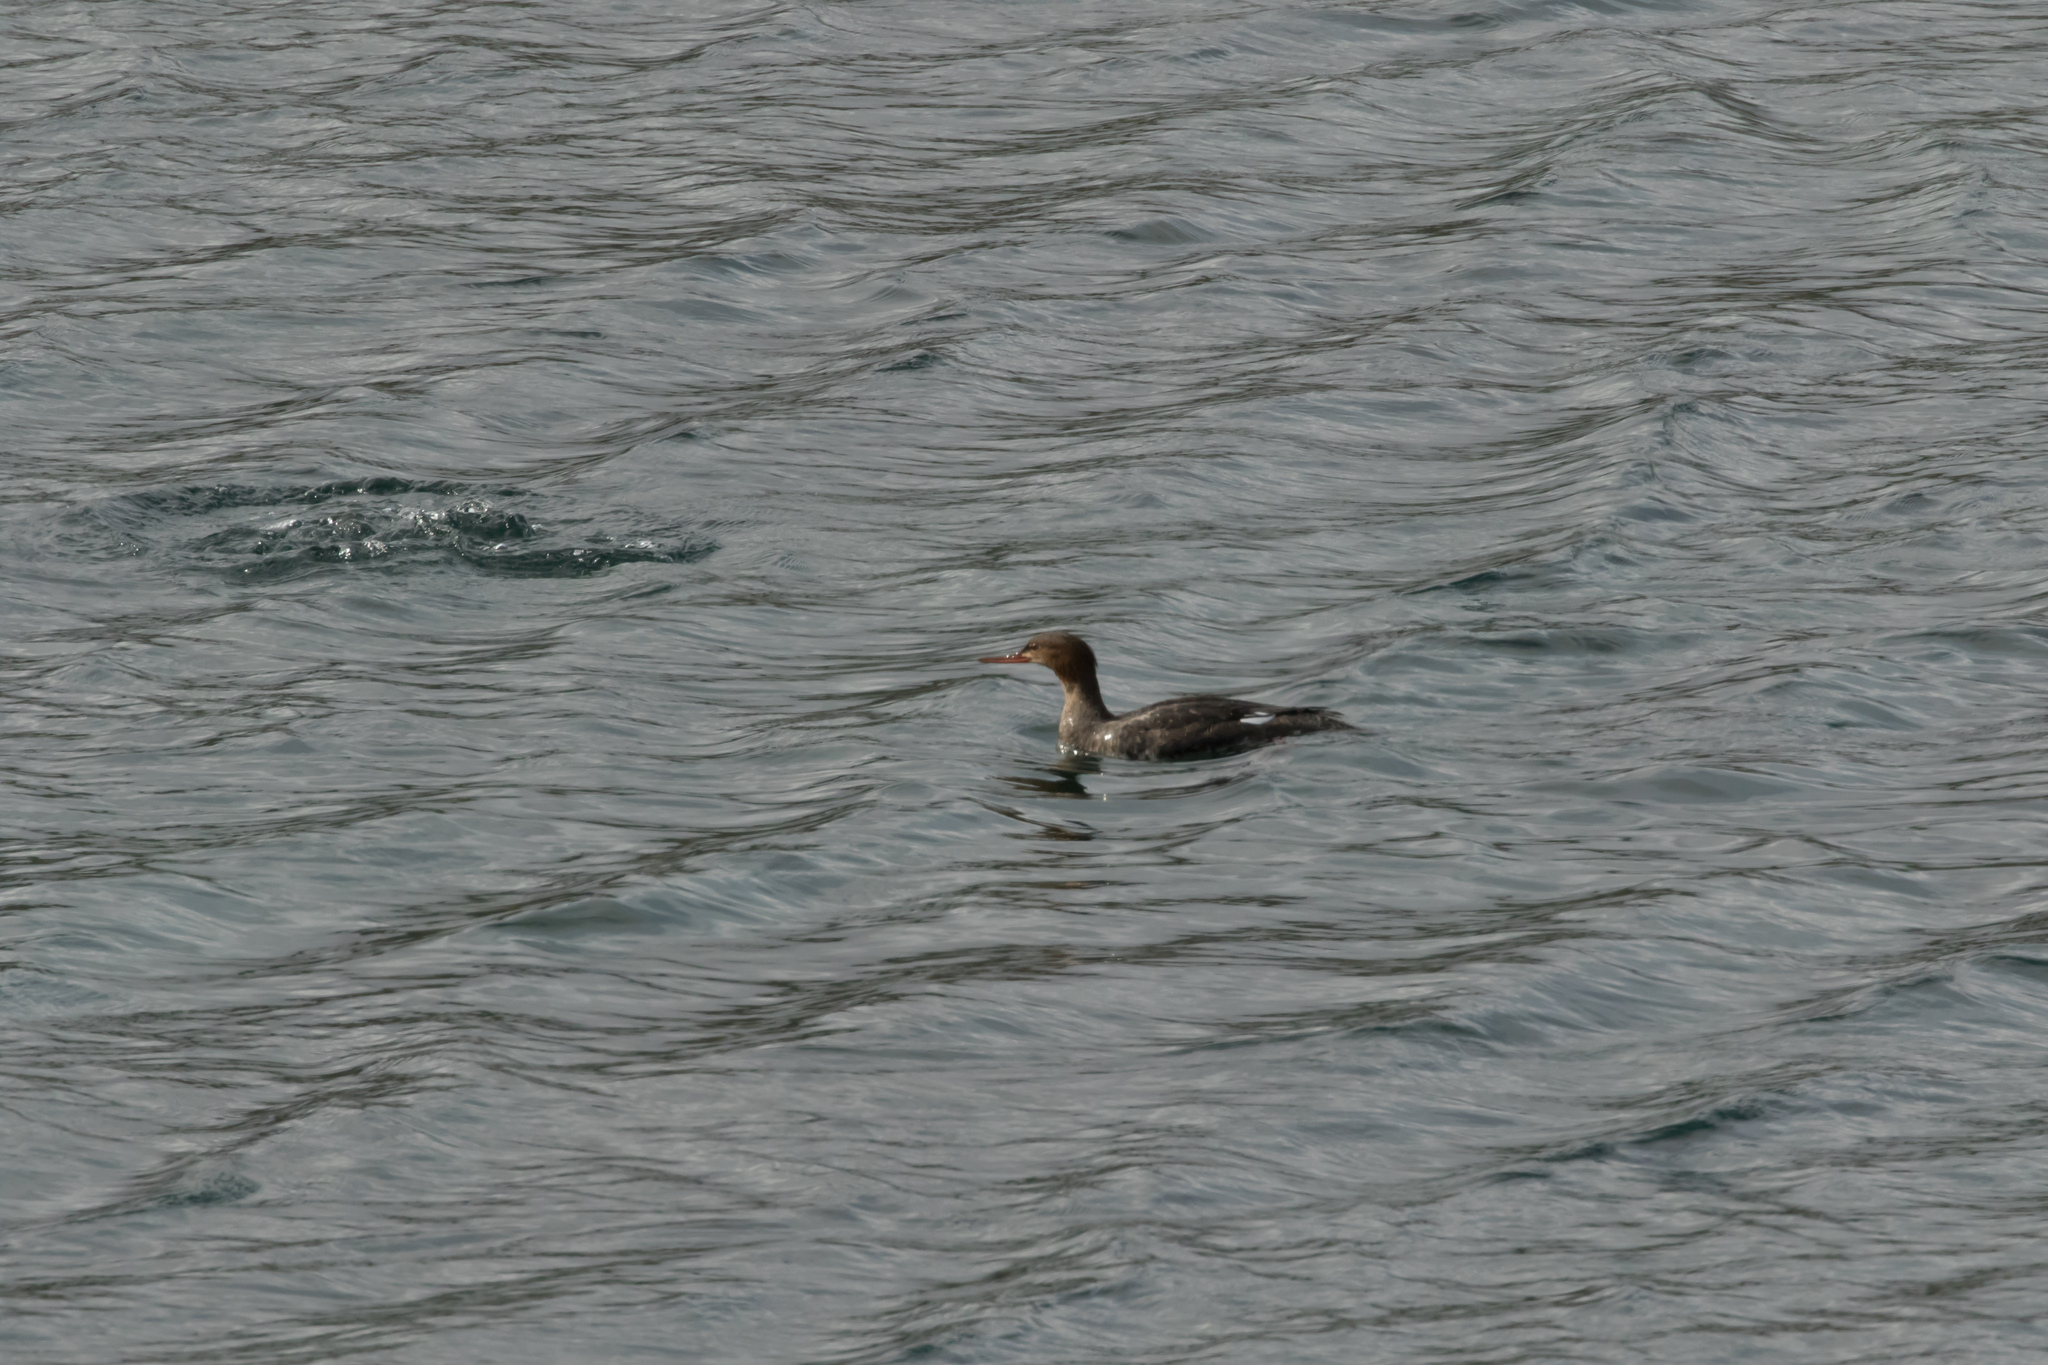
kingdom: Animalia
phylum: Chordata
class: Aves
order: Anseriformes
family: Anatidae
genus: Mergus
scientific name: Mergus serrator
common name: Red-breasted merganser
